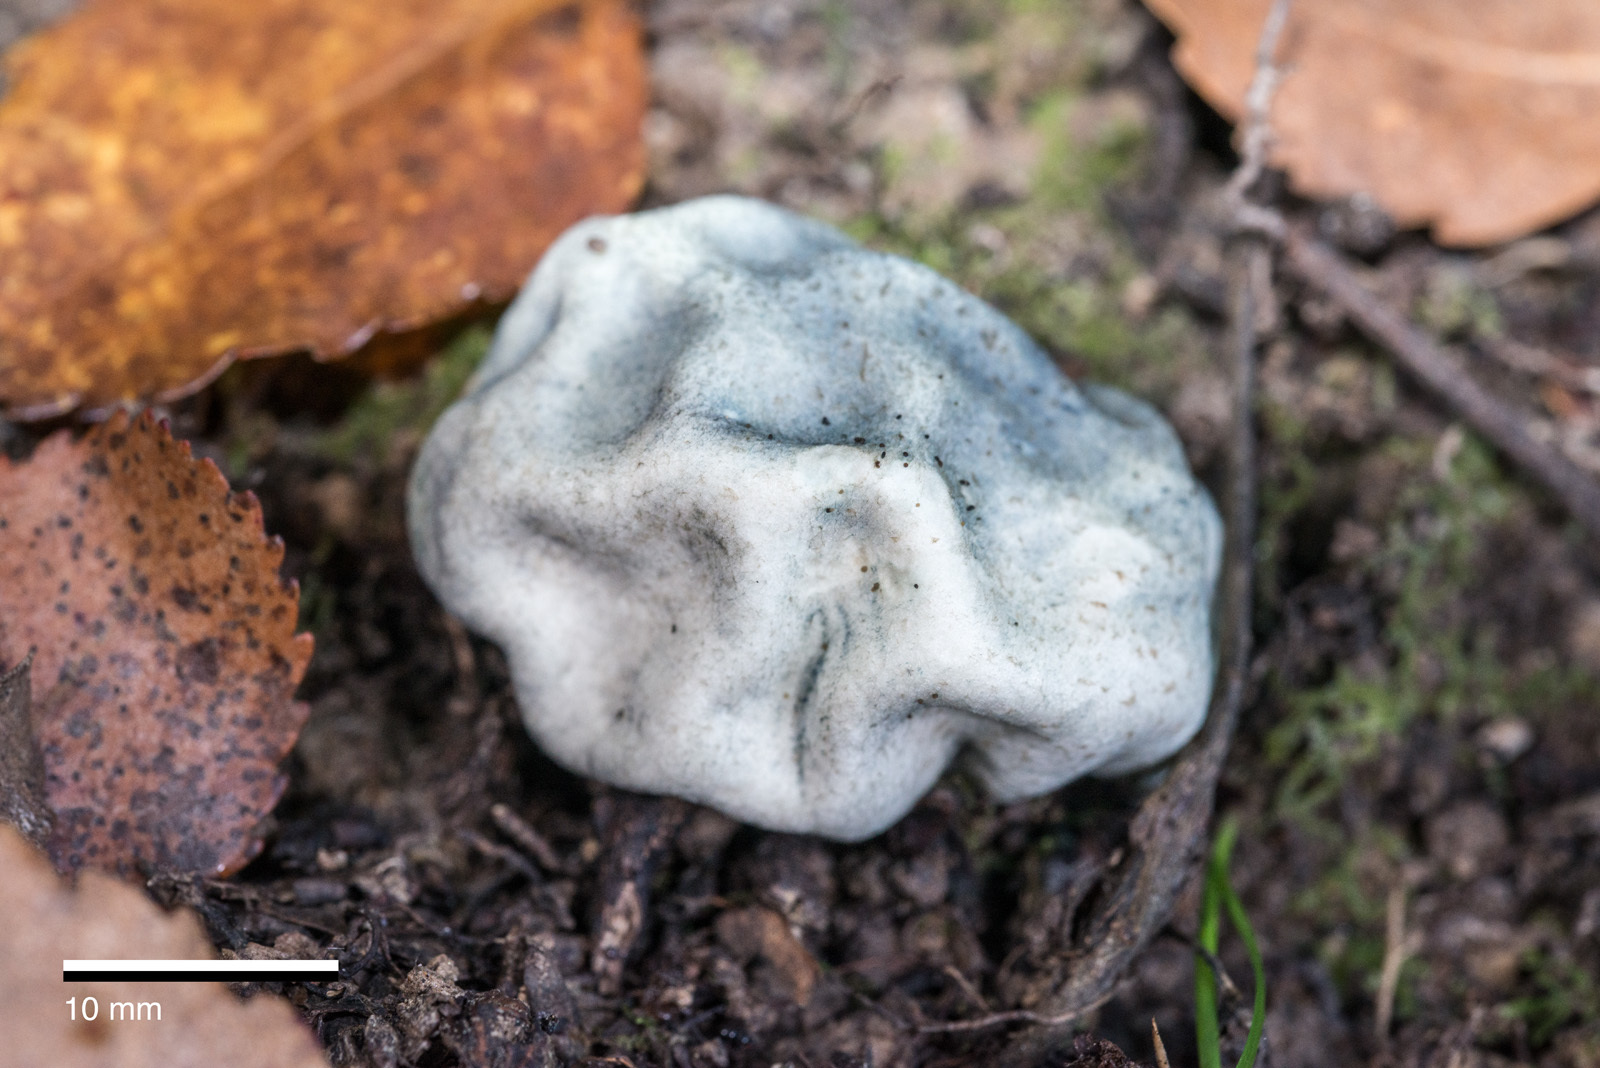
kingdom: Fungi
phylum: Basidiomycota
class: Agaricomycetes
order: Boletales
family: Boletaceae
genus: Leccinum
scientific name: Leccinum pachyderme
